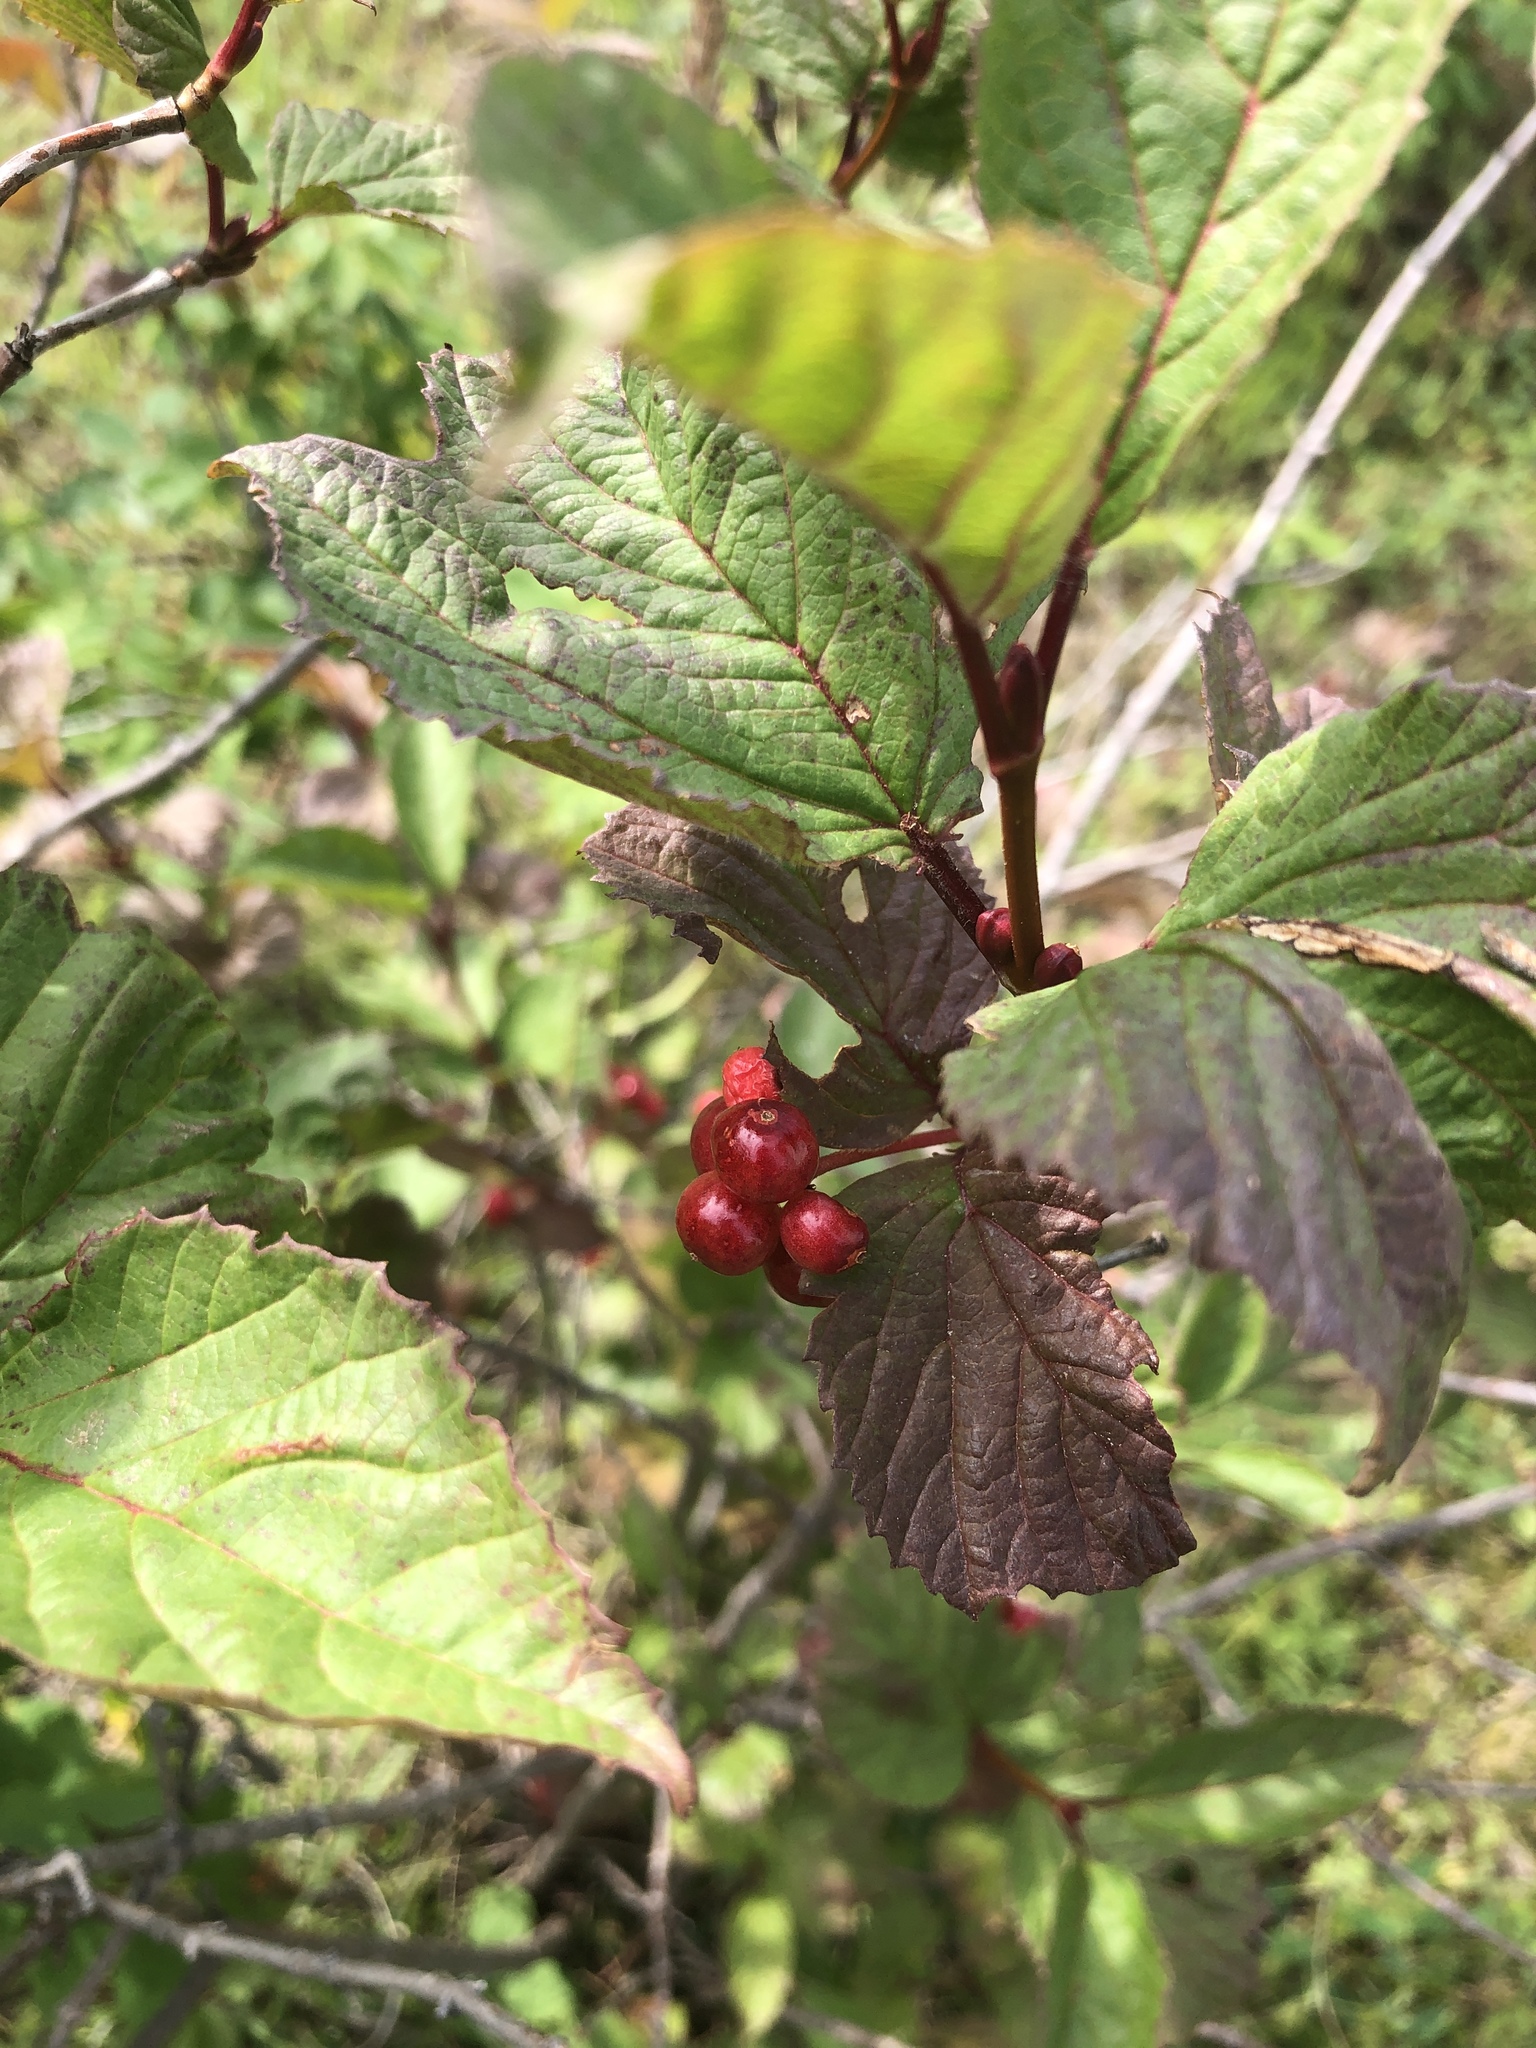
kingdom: Plantae
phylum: Tracheophyta
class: Magnoliopsida
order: Dipsacales
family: Viburnaceae
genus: Viburnum
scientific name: Viburnum edule
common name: Mooseberry
